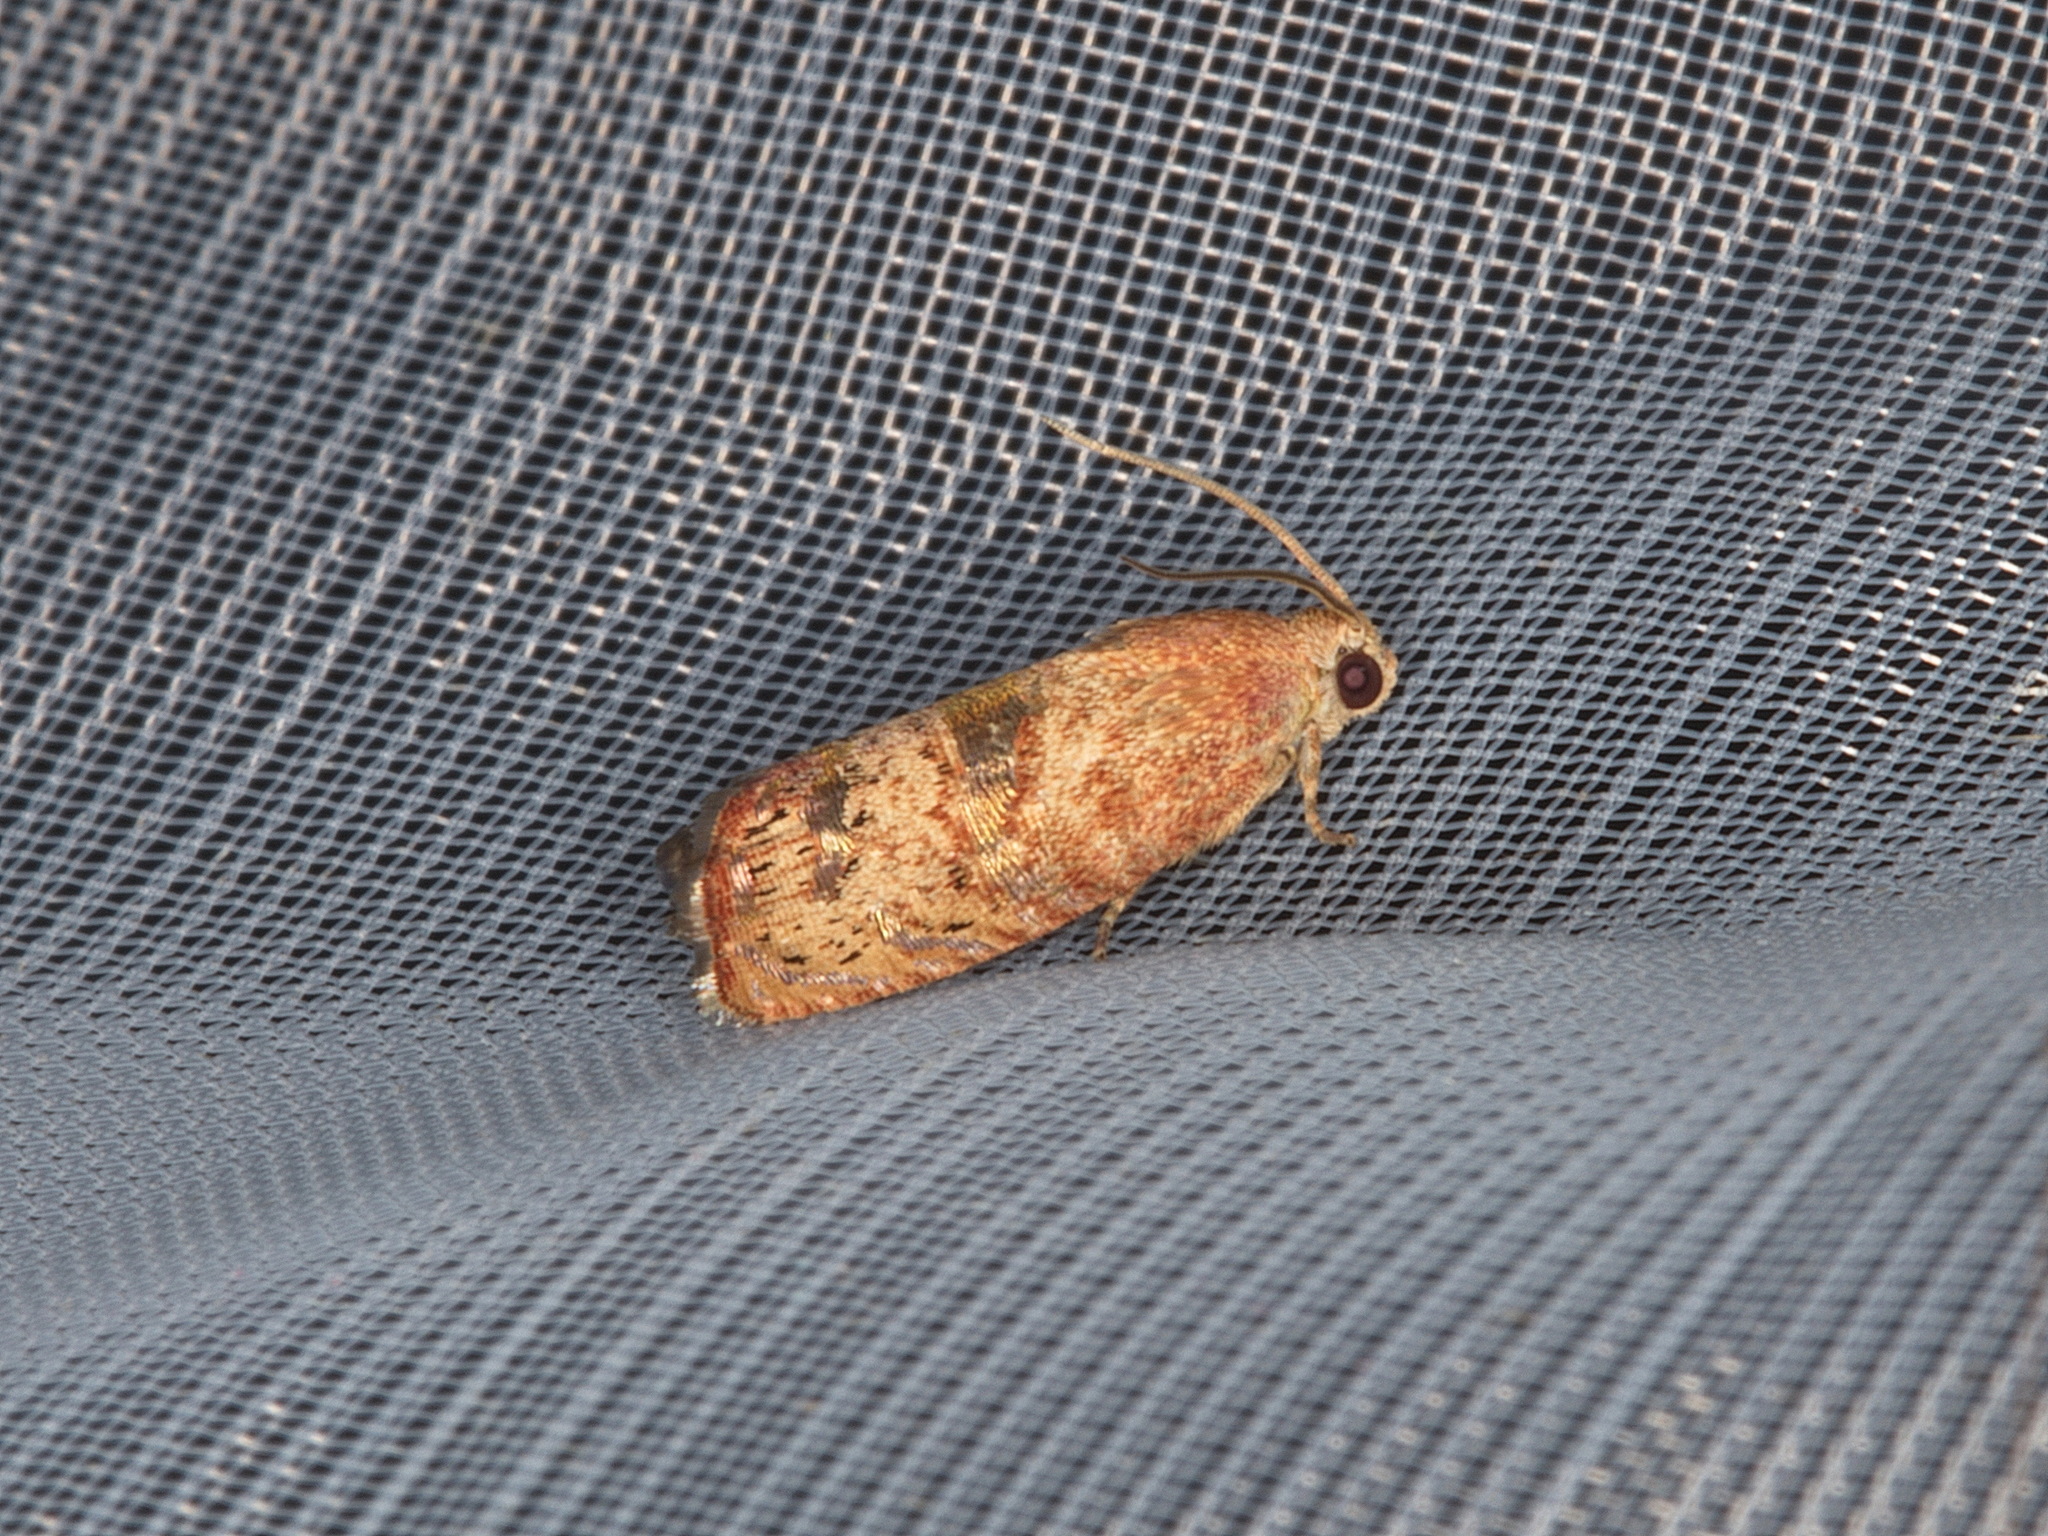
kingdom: Animalia
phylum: Arthropoda
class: Insecta
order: Lepidoptera
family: Tortricidae
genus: Cydia
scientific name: Cydia latiferreana
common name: Filbertworm moth
